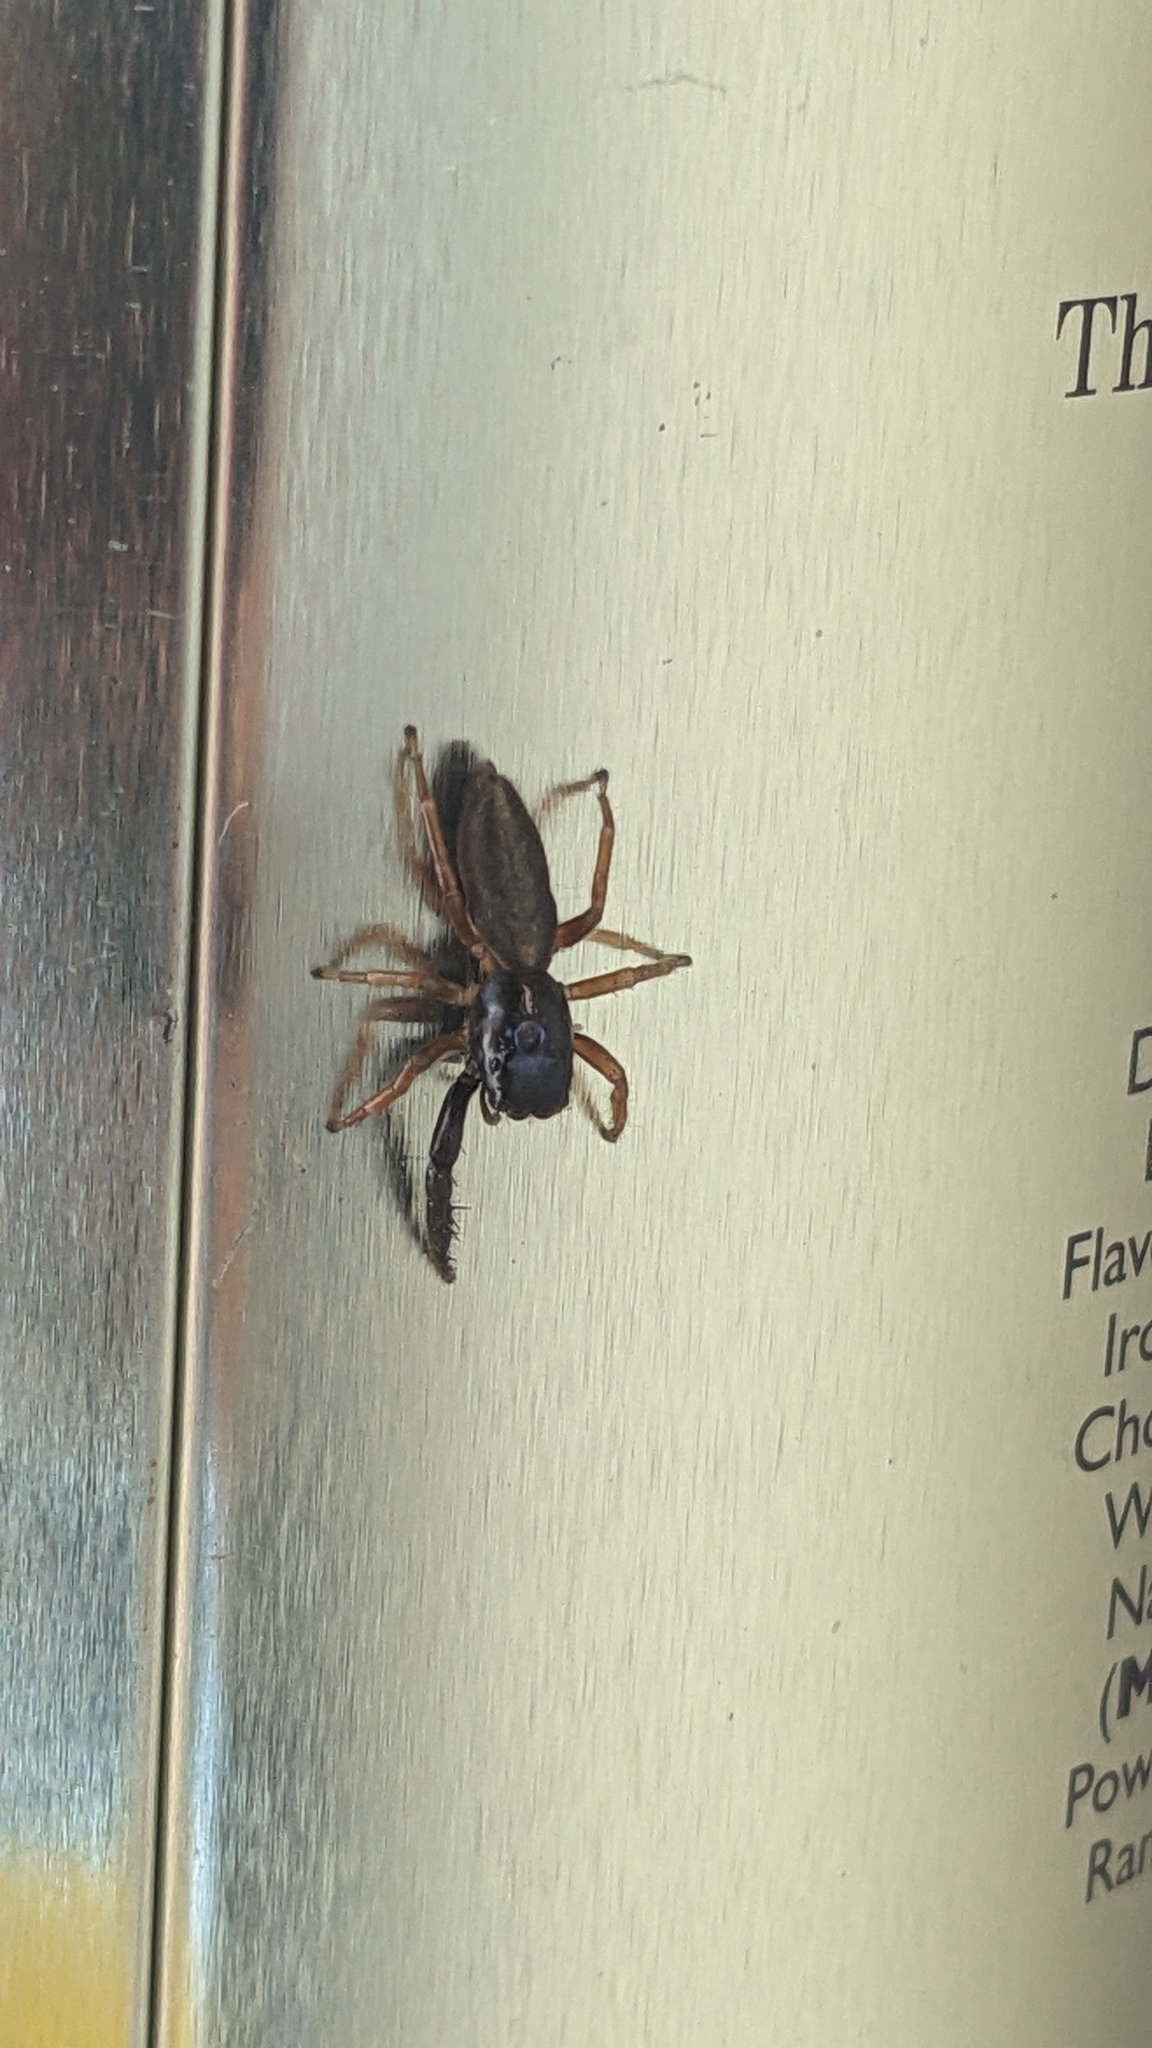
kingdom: Animalia
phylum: Arthropoda
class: Arachnida
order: Araneae
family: Salticidae
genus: Trite
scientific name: Trite planiceps
